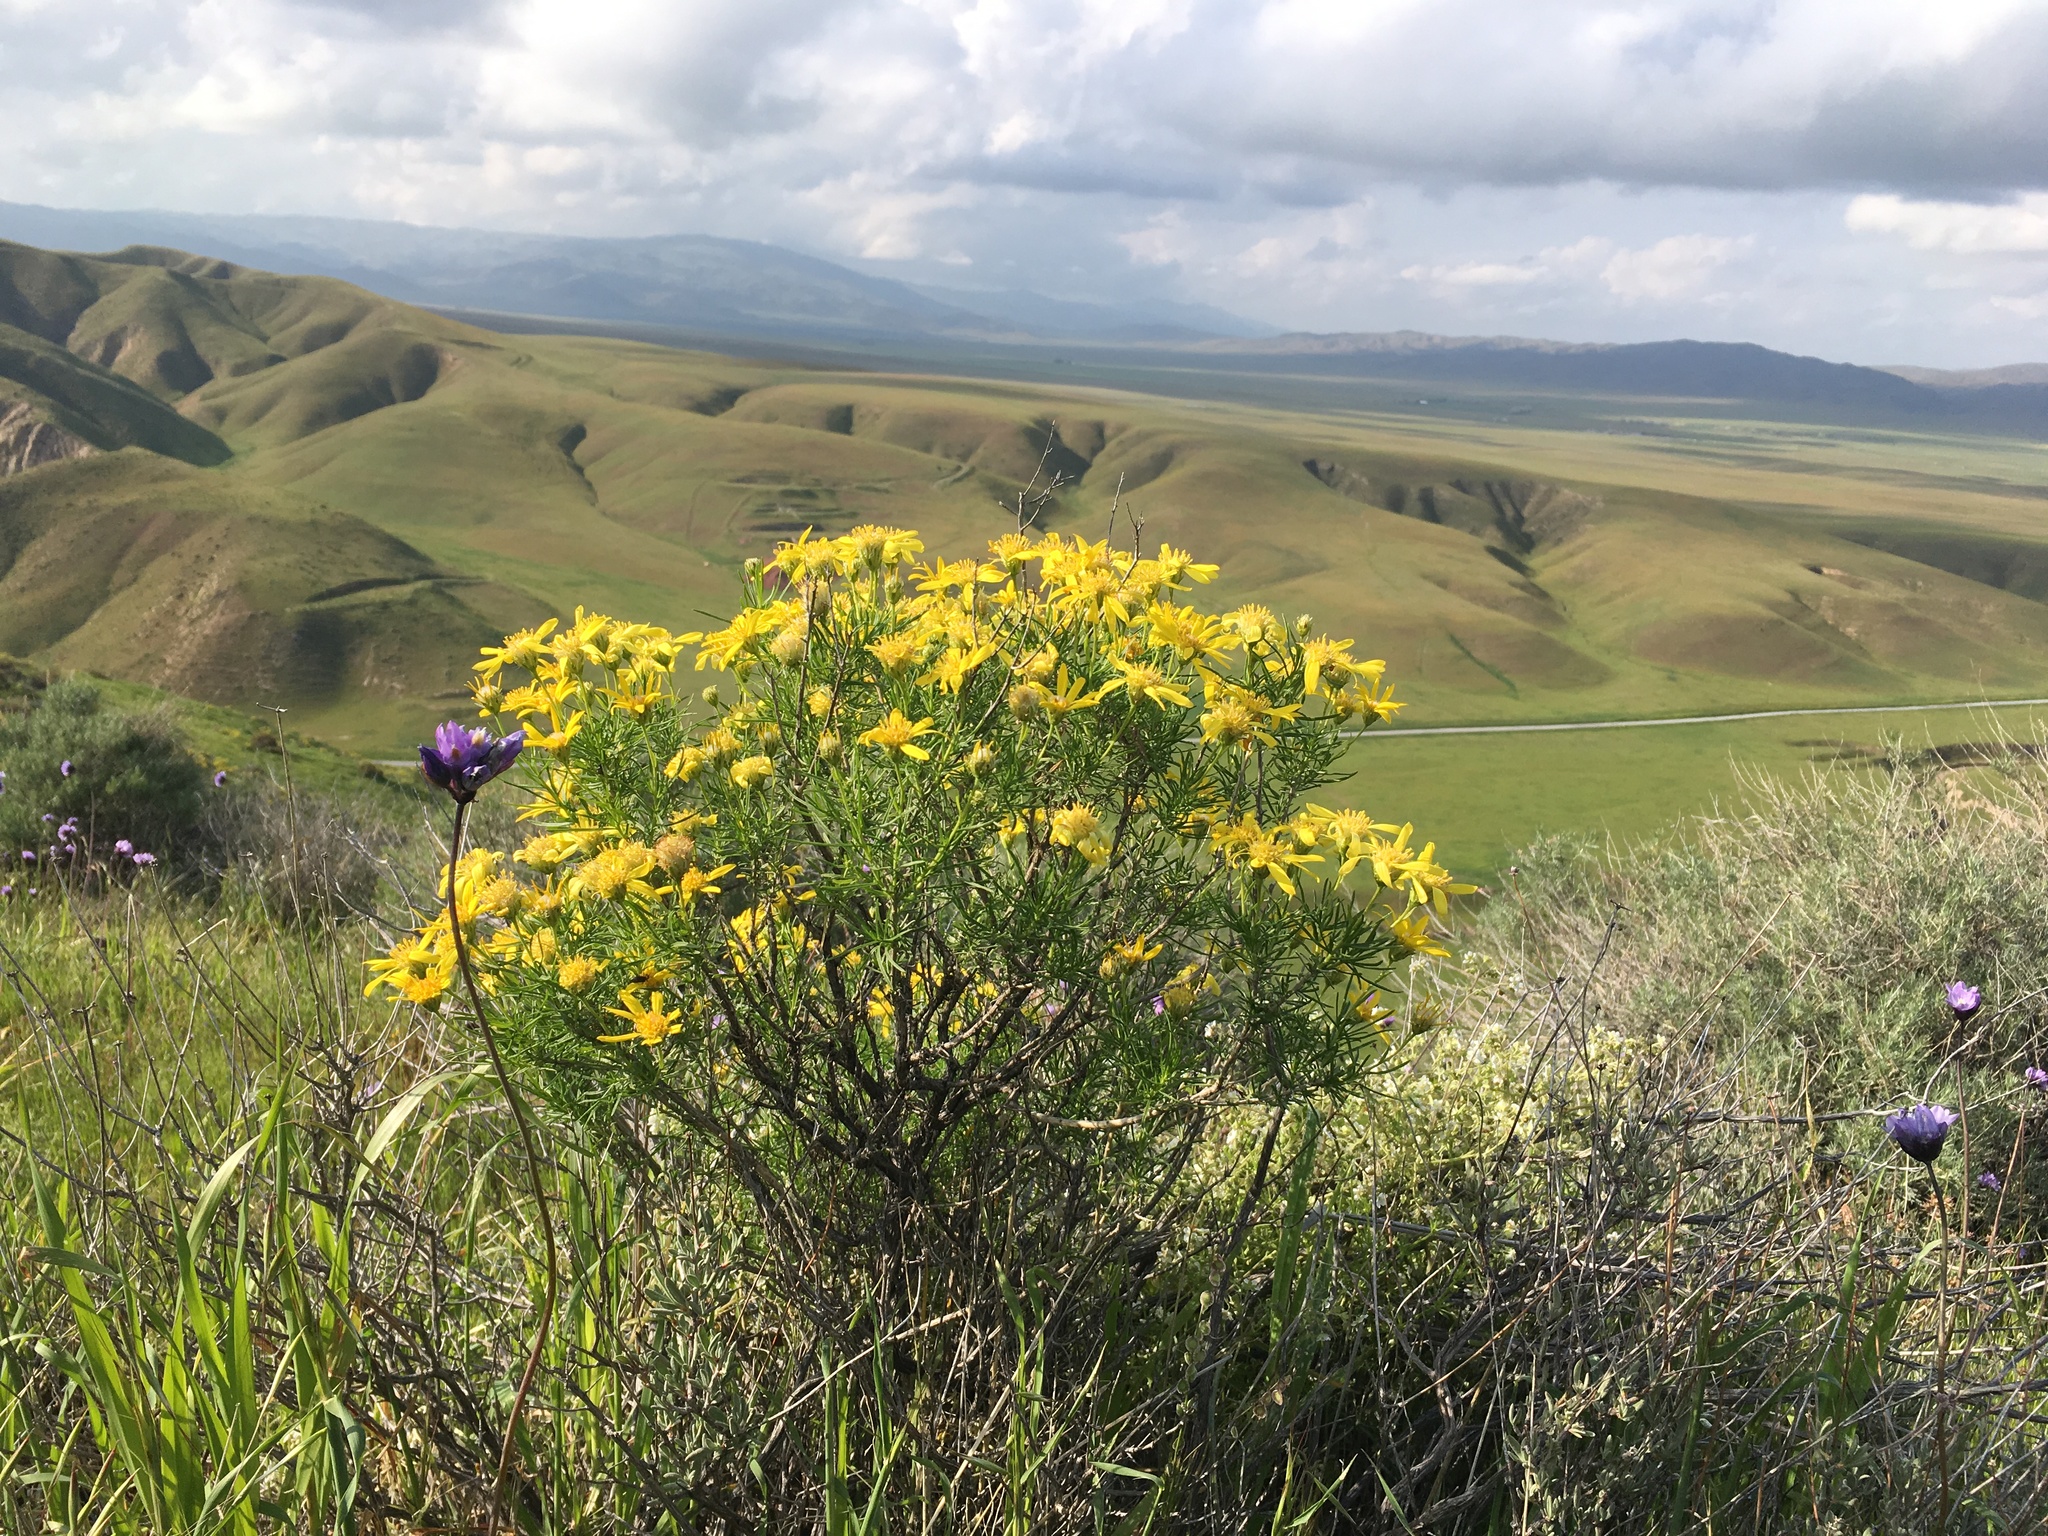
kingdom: Plantae
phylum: Tracheophyta
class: Magnoliopsida
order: Asterales
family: Asteraceae
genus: Ericameria
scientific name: Ericameria linearifolia
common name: Interior goldenbush
